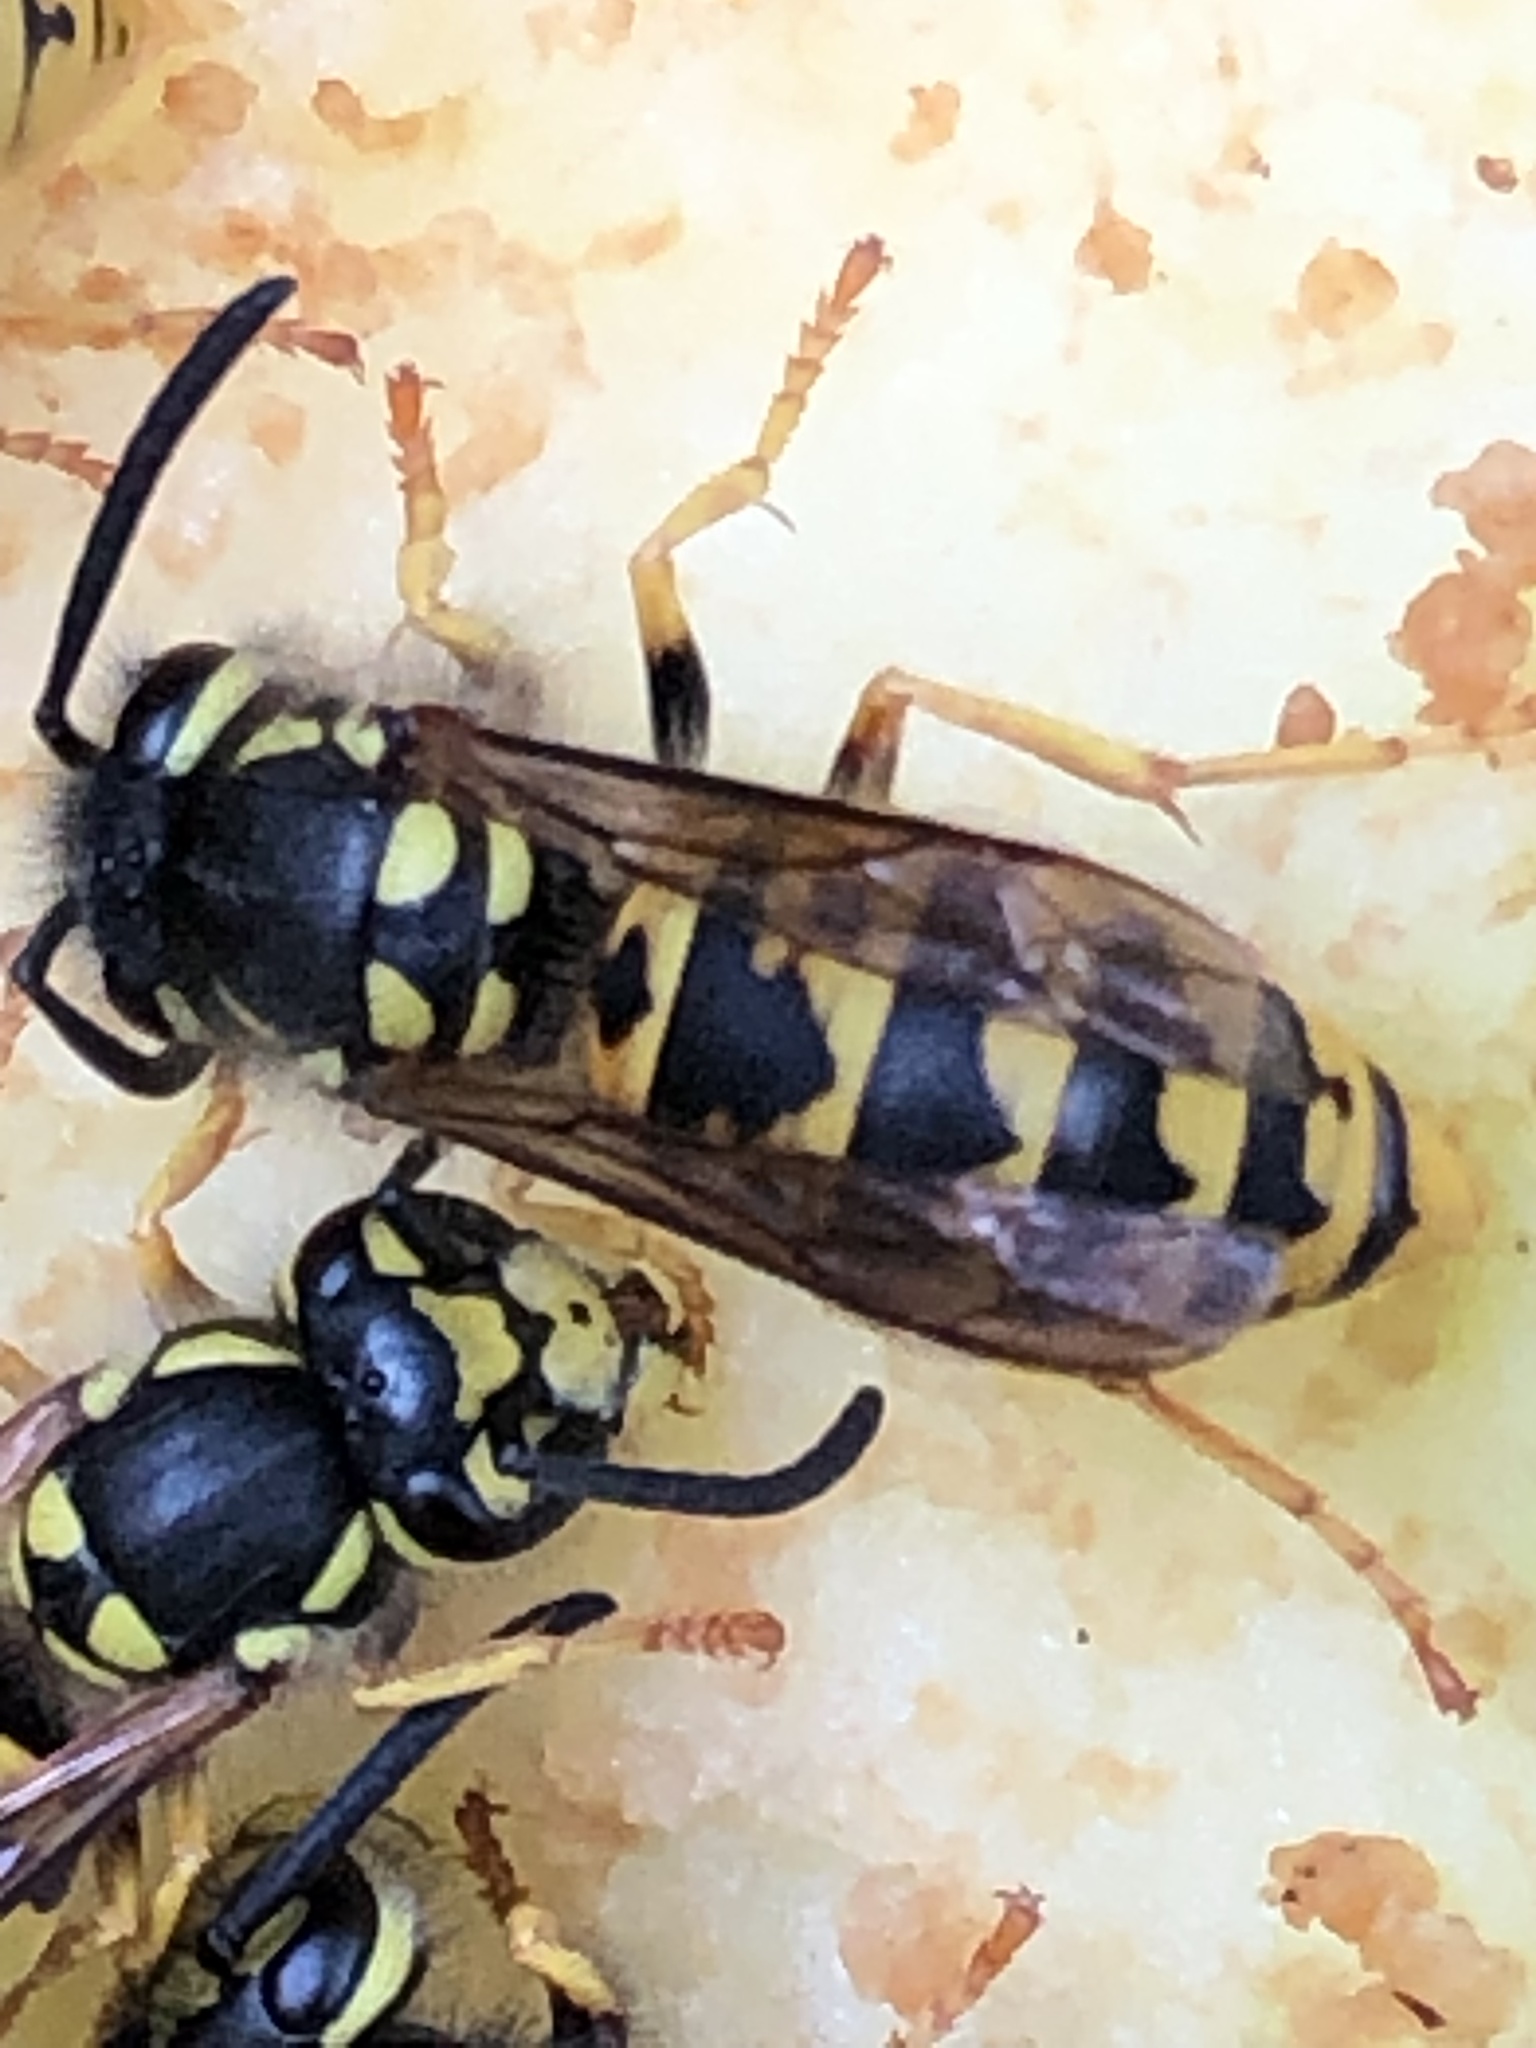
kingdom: Animalia
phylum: Arthropoda
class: Insecta
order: Hymenoptera
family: Vespidae
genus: Vespula
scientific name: Vespula germanica
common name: German wasp
